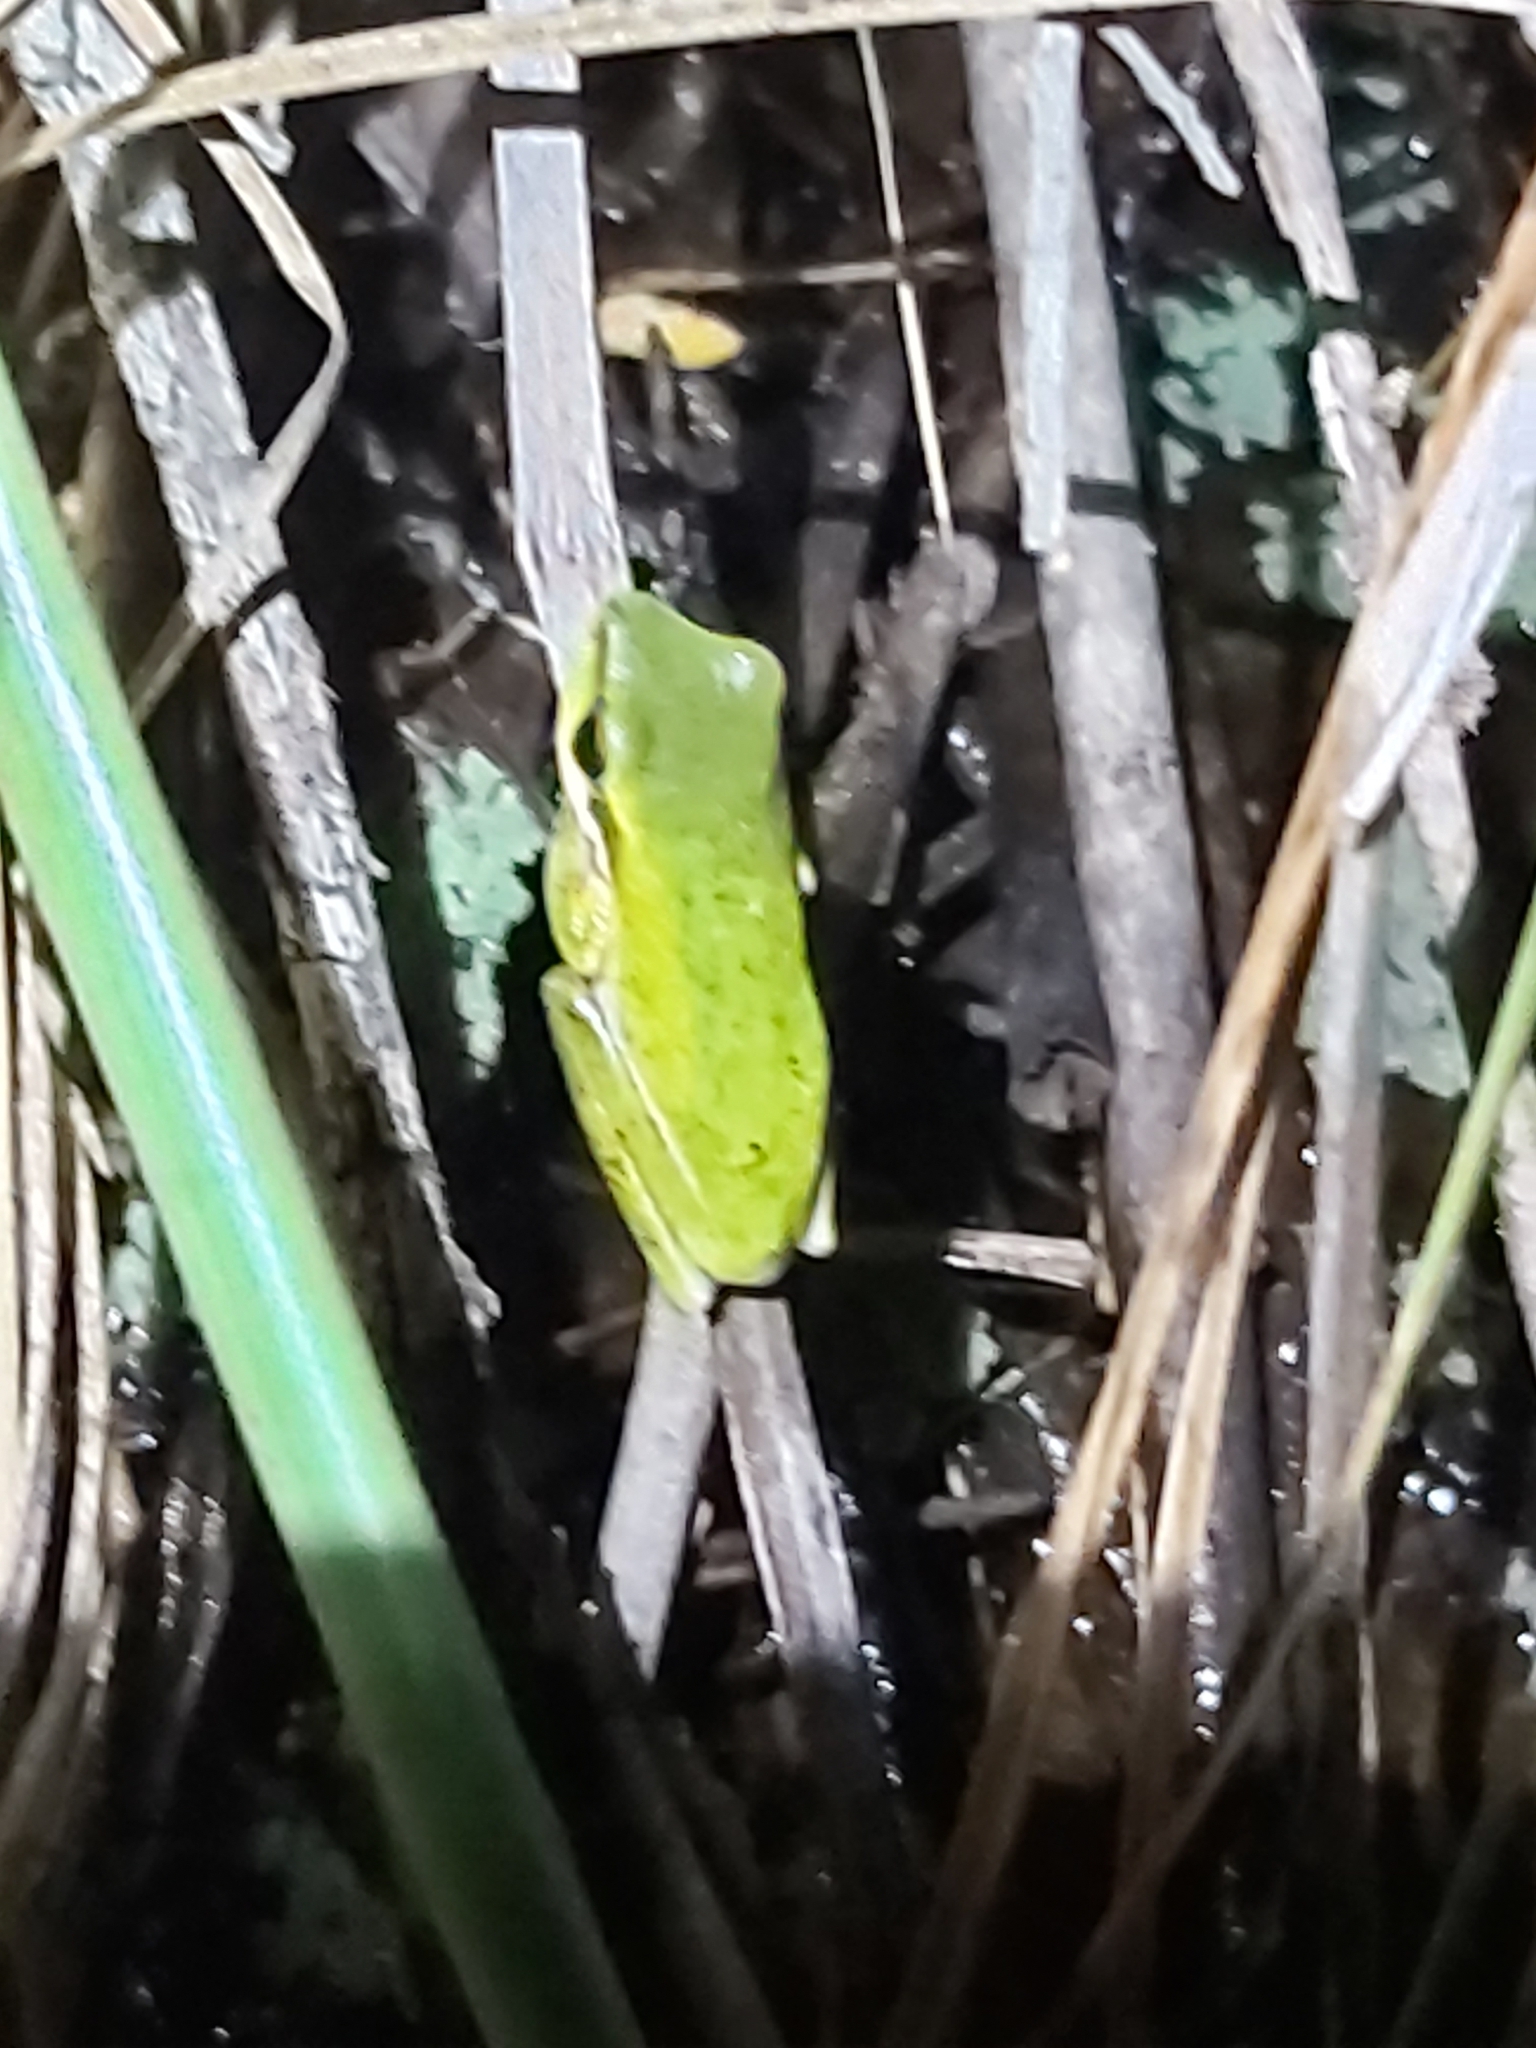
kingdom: Animalia
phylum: Chordata
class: Amphibia
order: Anura
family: Pelodryadidae
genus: Litoria
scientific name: Litoria fallax
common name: Eastern dwarf treefrog
